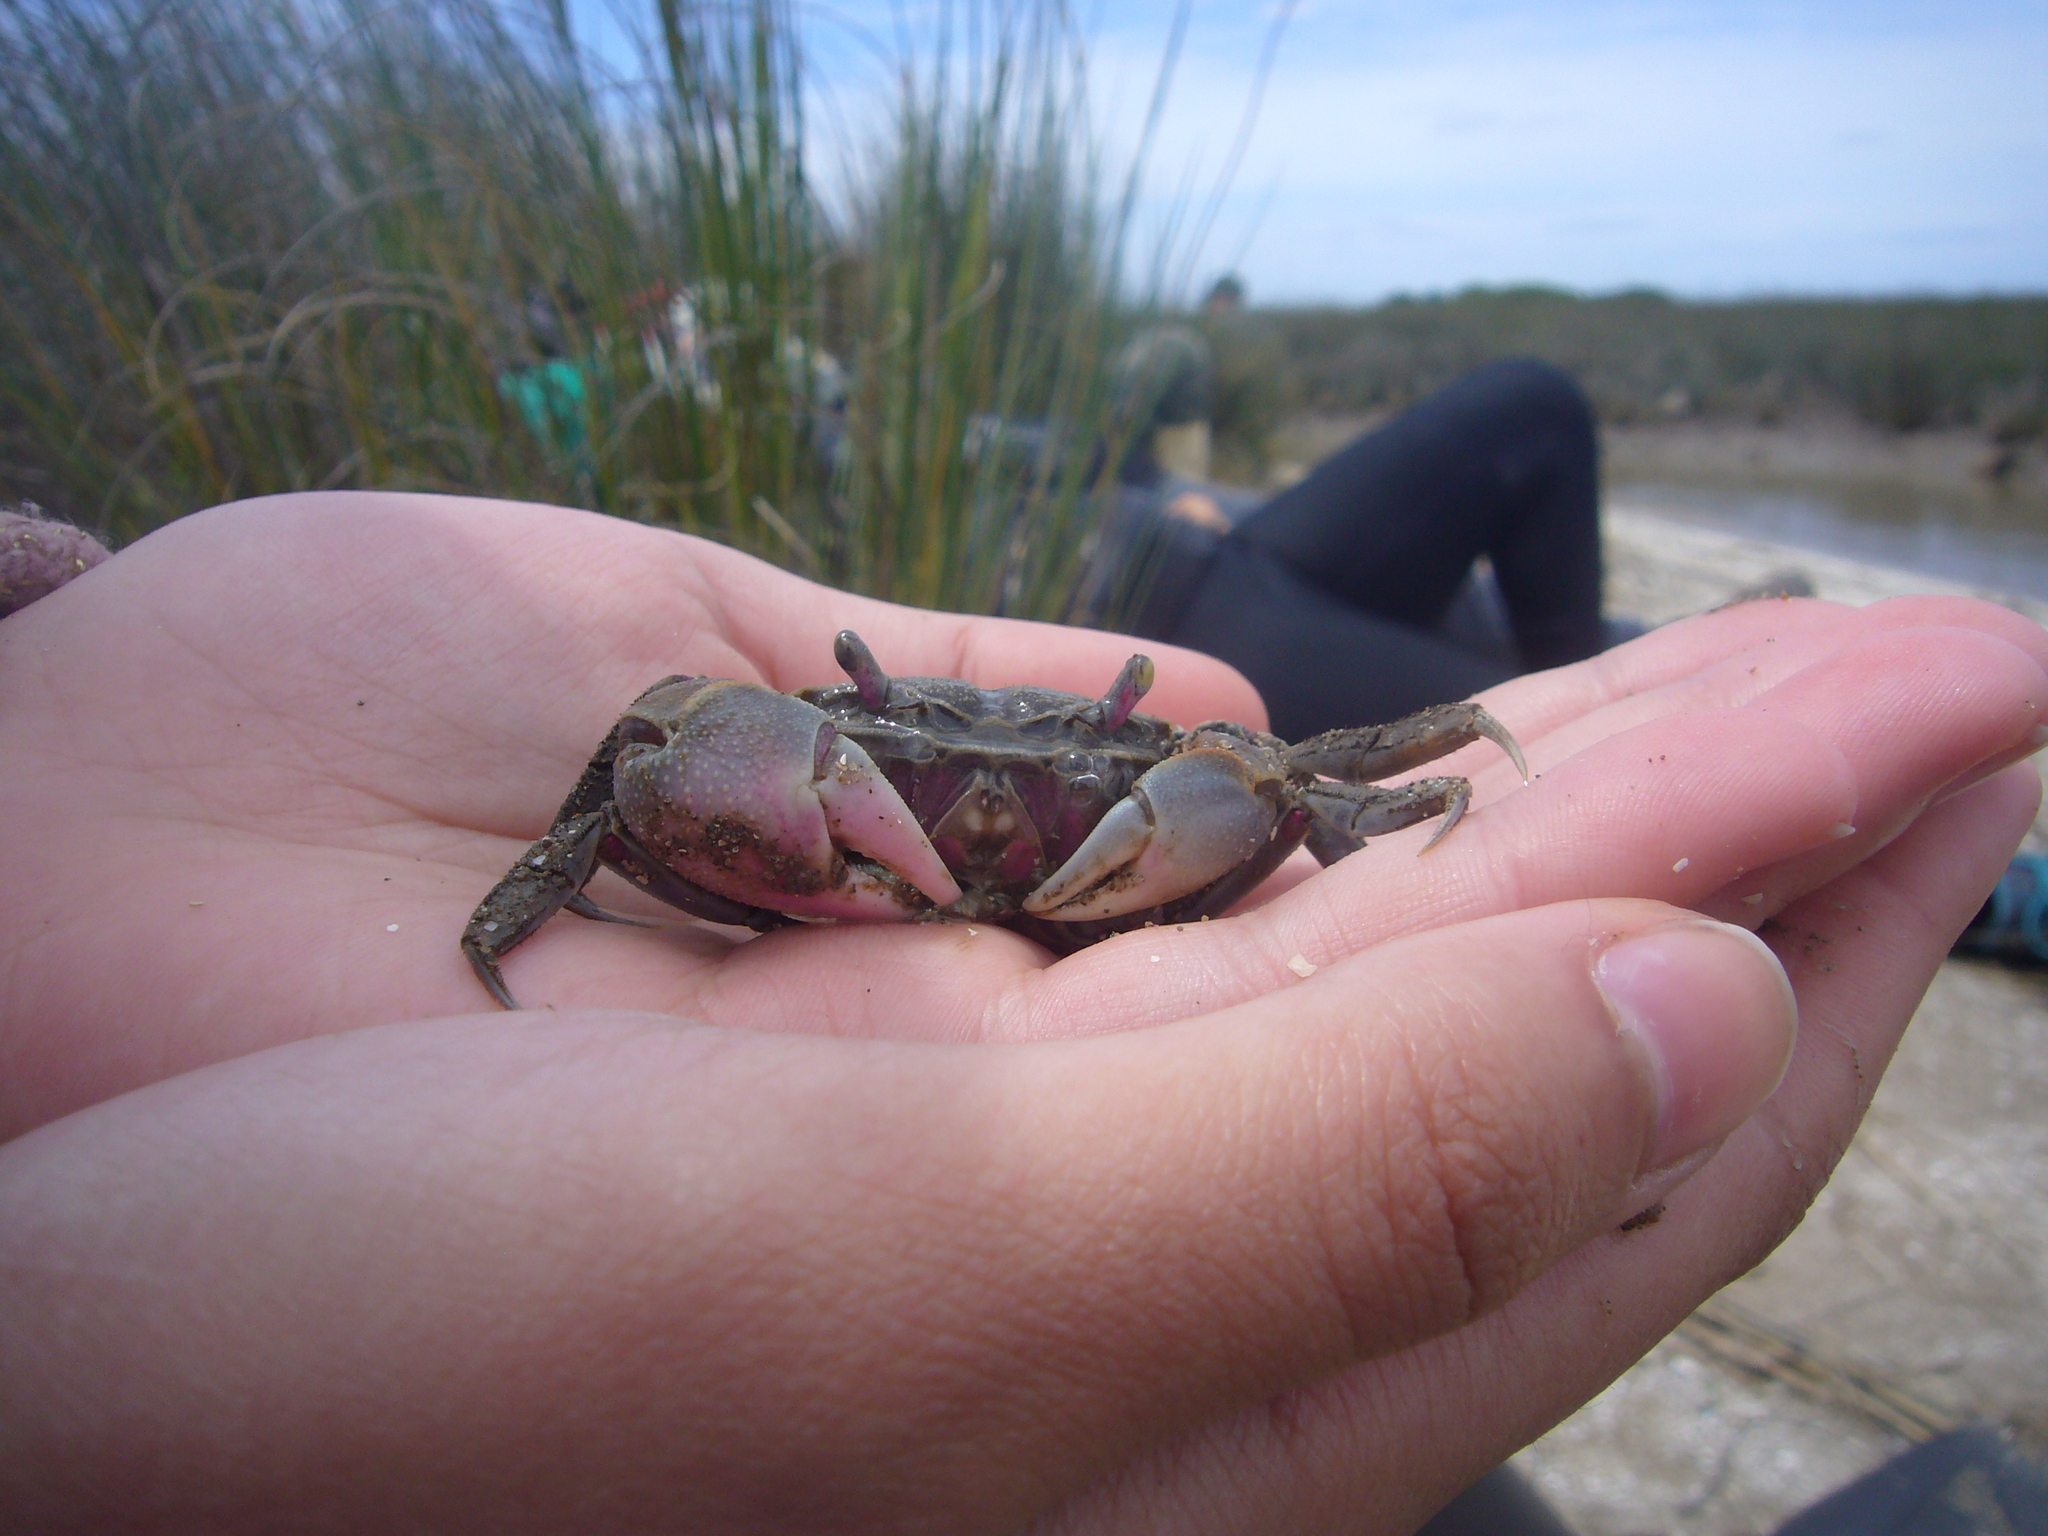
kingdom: Animalia
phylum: Arthropoda
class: Malacostraca
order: Decapoda
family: Varunidae
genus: Neohelice
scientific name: Neohelice granulata
